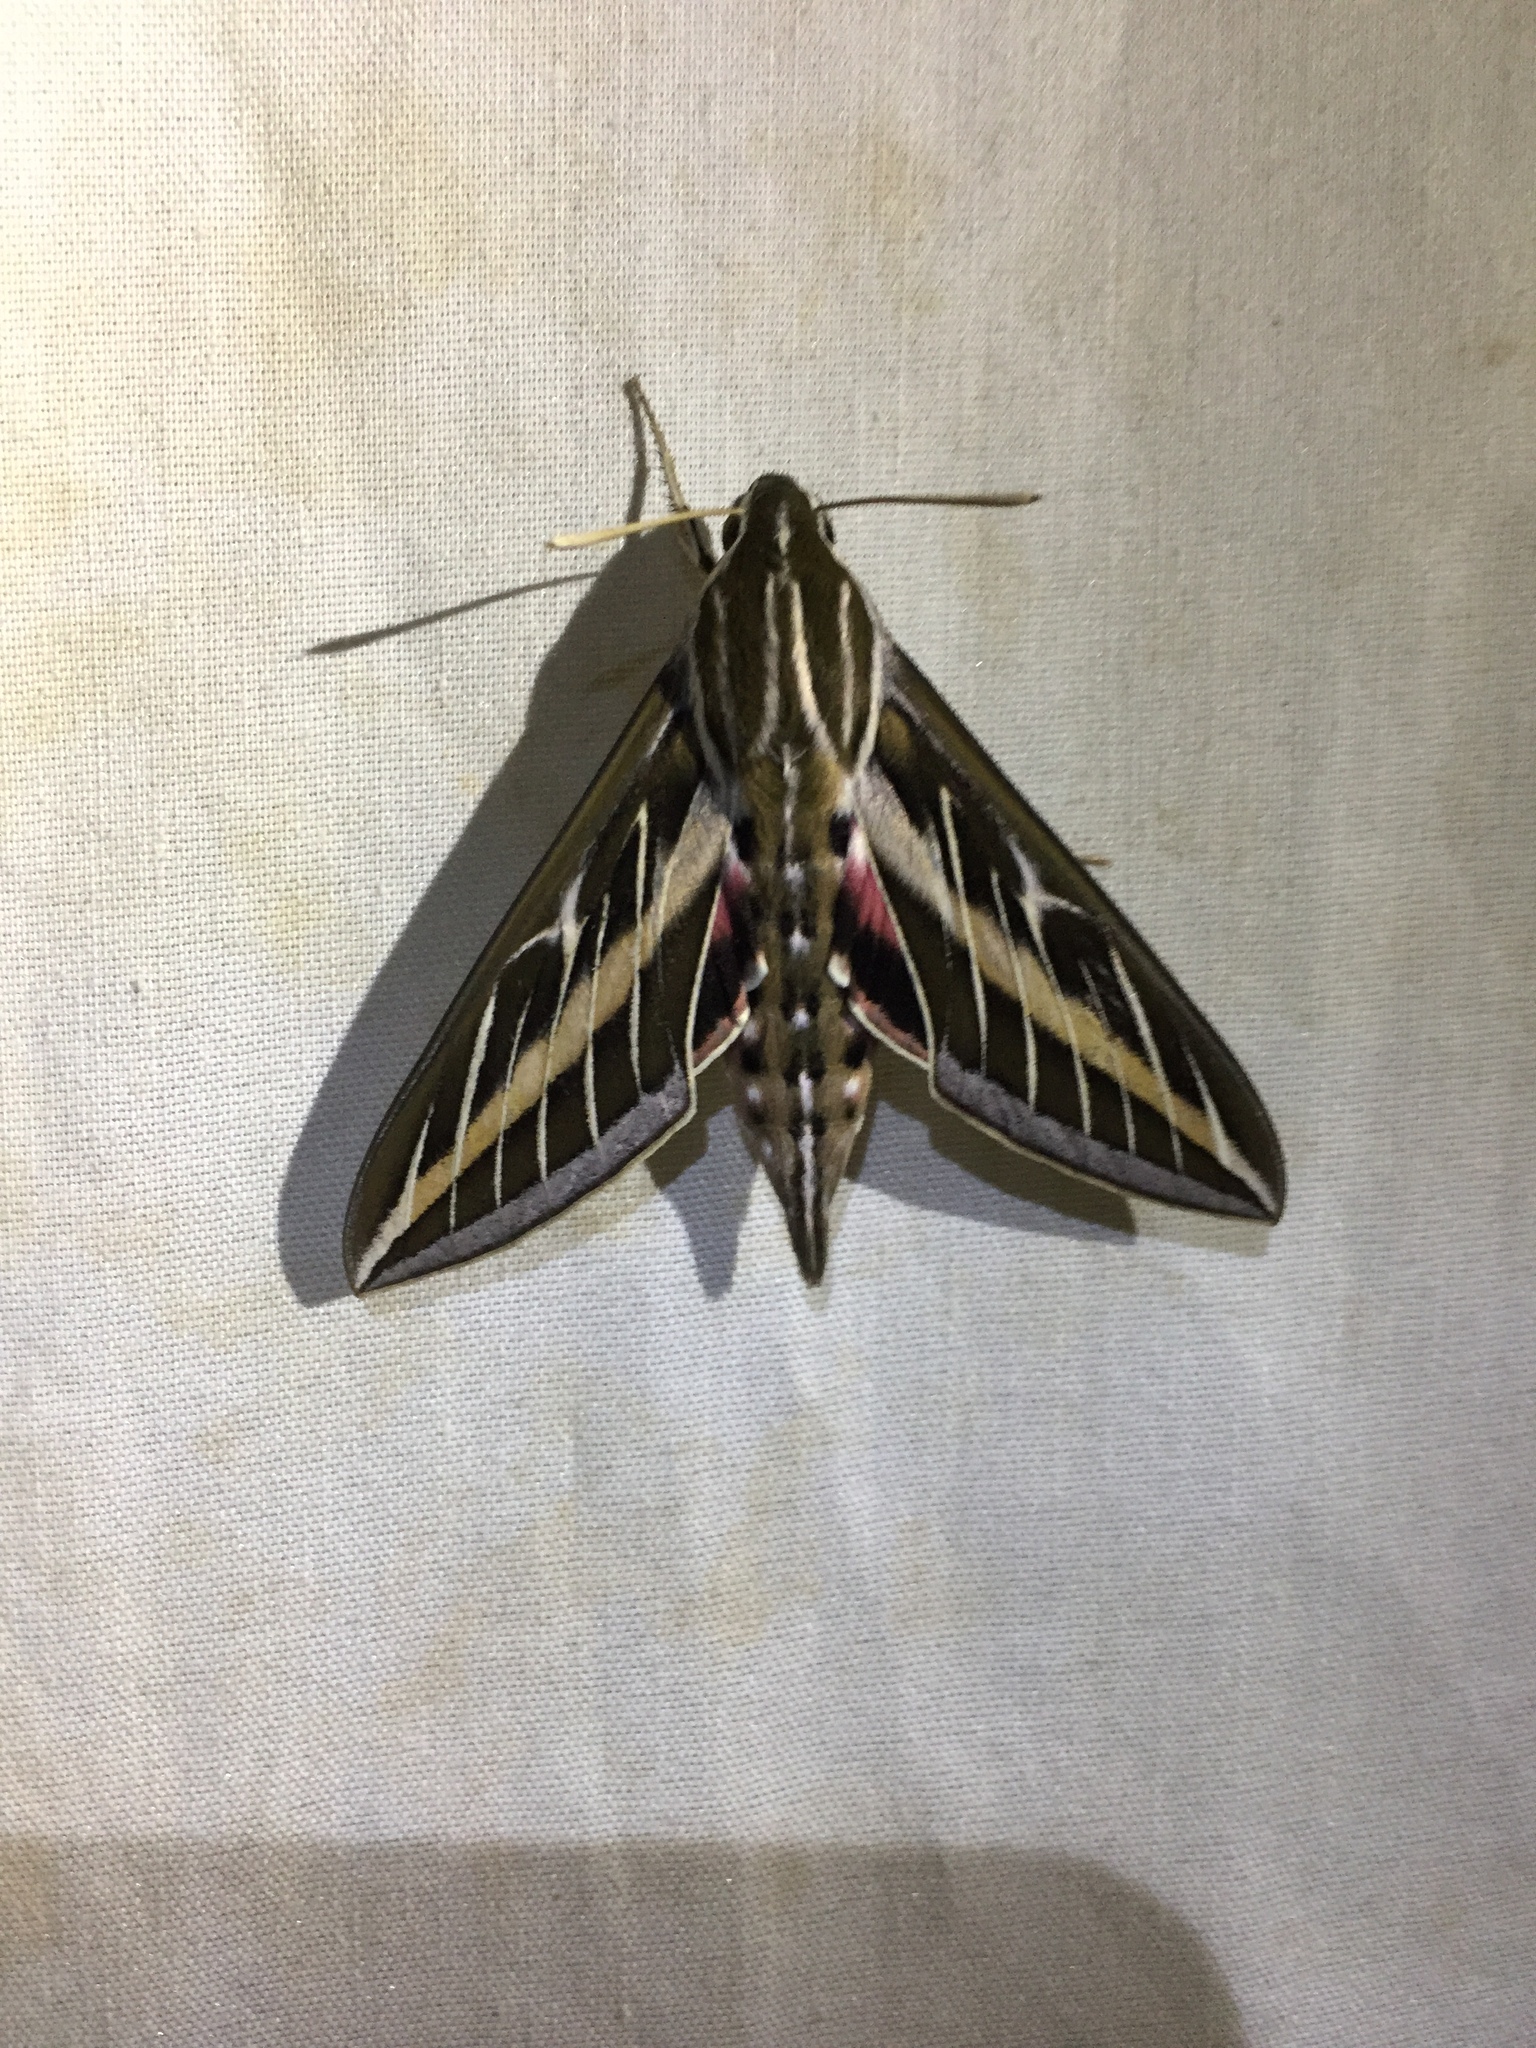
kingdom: Animalia
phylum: Arthropoda
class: Insecta
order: Lepidoptera
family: Sphingidae
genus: Hyles
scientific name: Hyles lineata
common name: White-lined sphinx
